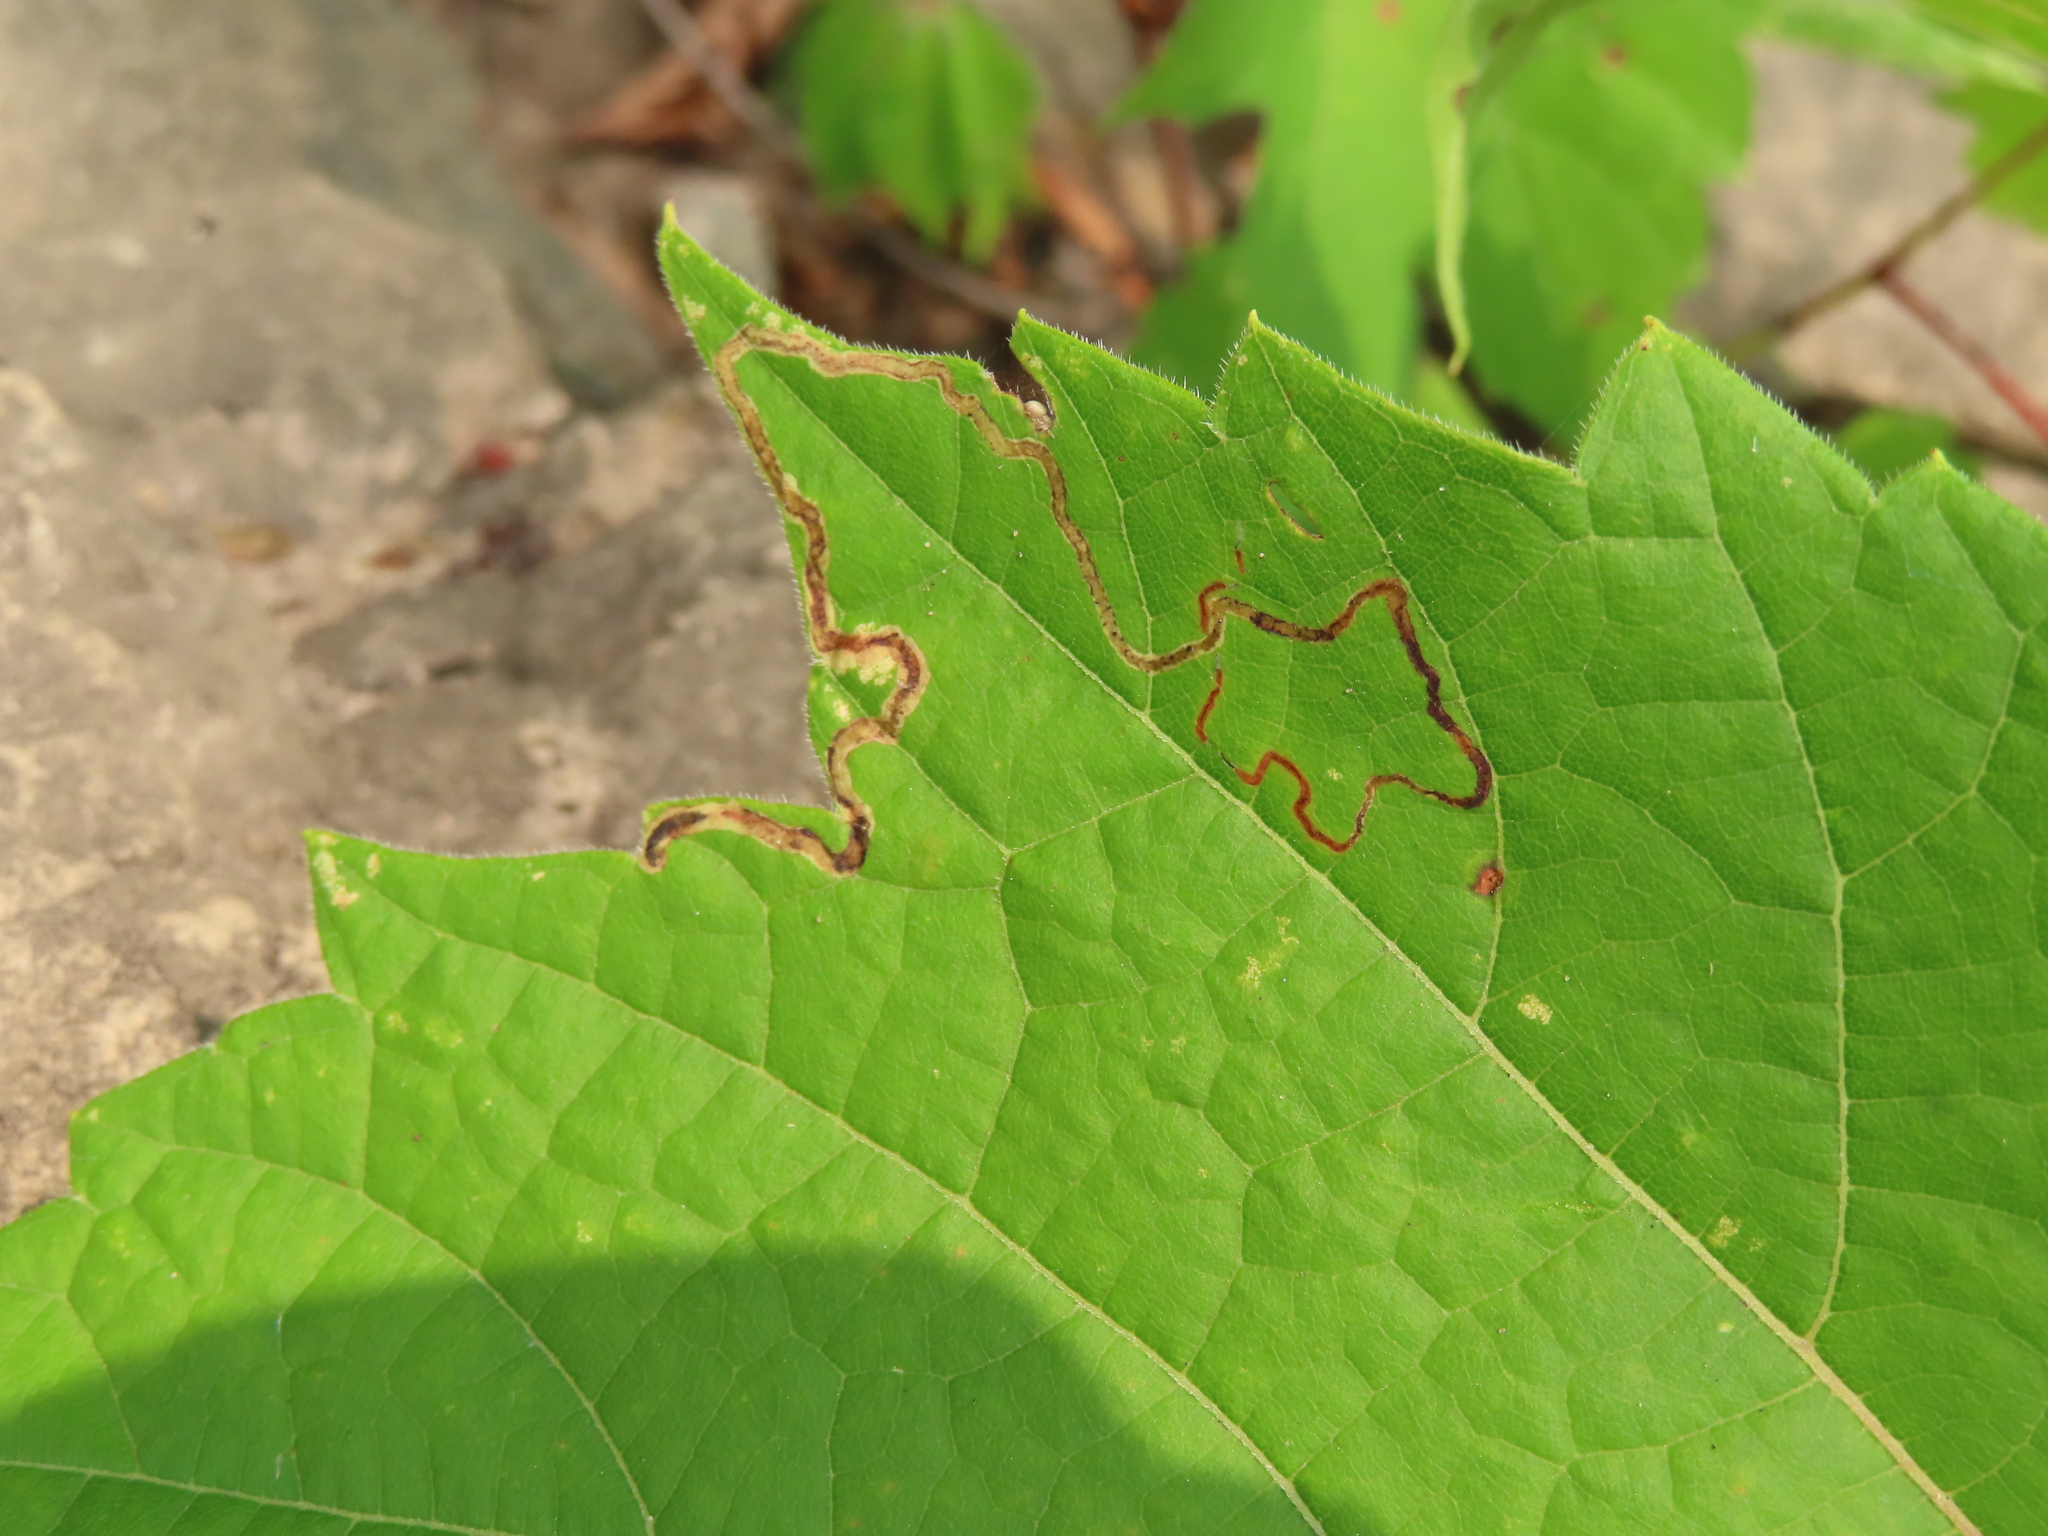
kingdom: Animalia
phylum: Arthropoda
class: Insecta
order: Lepidoptera
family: Gracillariidae
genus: Phyllocnistis
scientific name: Phyllocnistis vitifoliella
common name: Grape leaf-miner moth
